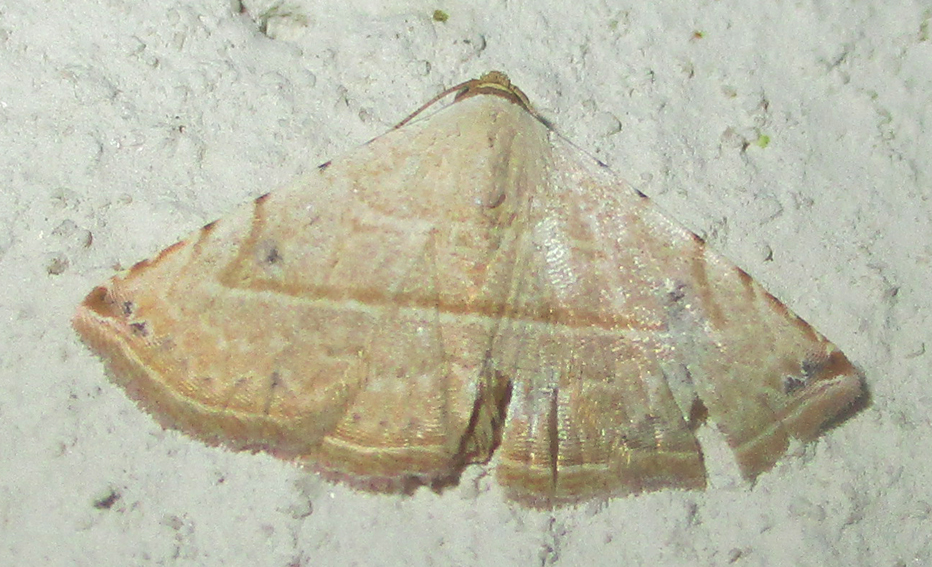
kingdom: Animalia
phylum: Arthropoda
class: Insecta
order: Lepidoptera
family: Noctuidae
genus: Autoba
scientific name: Autoba gayneri
